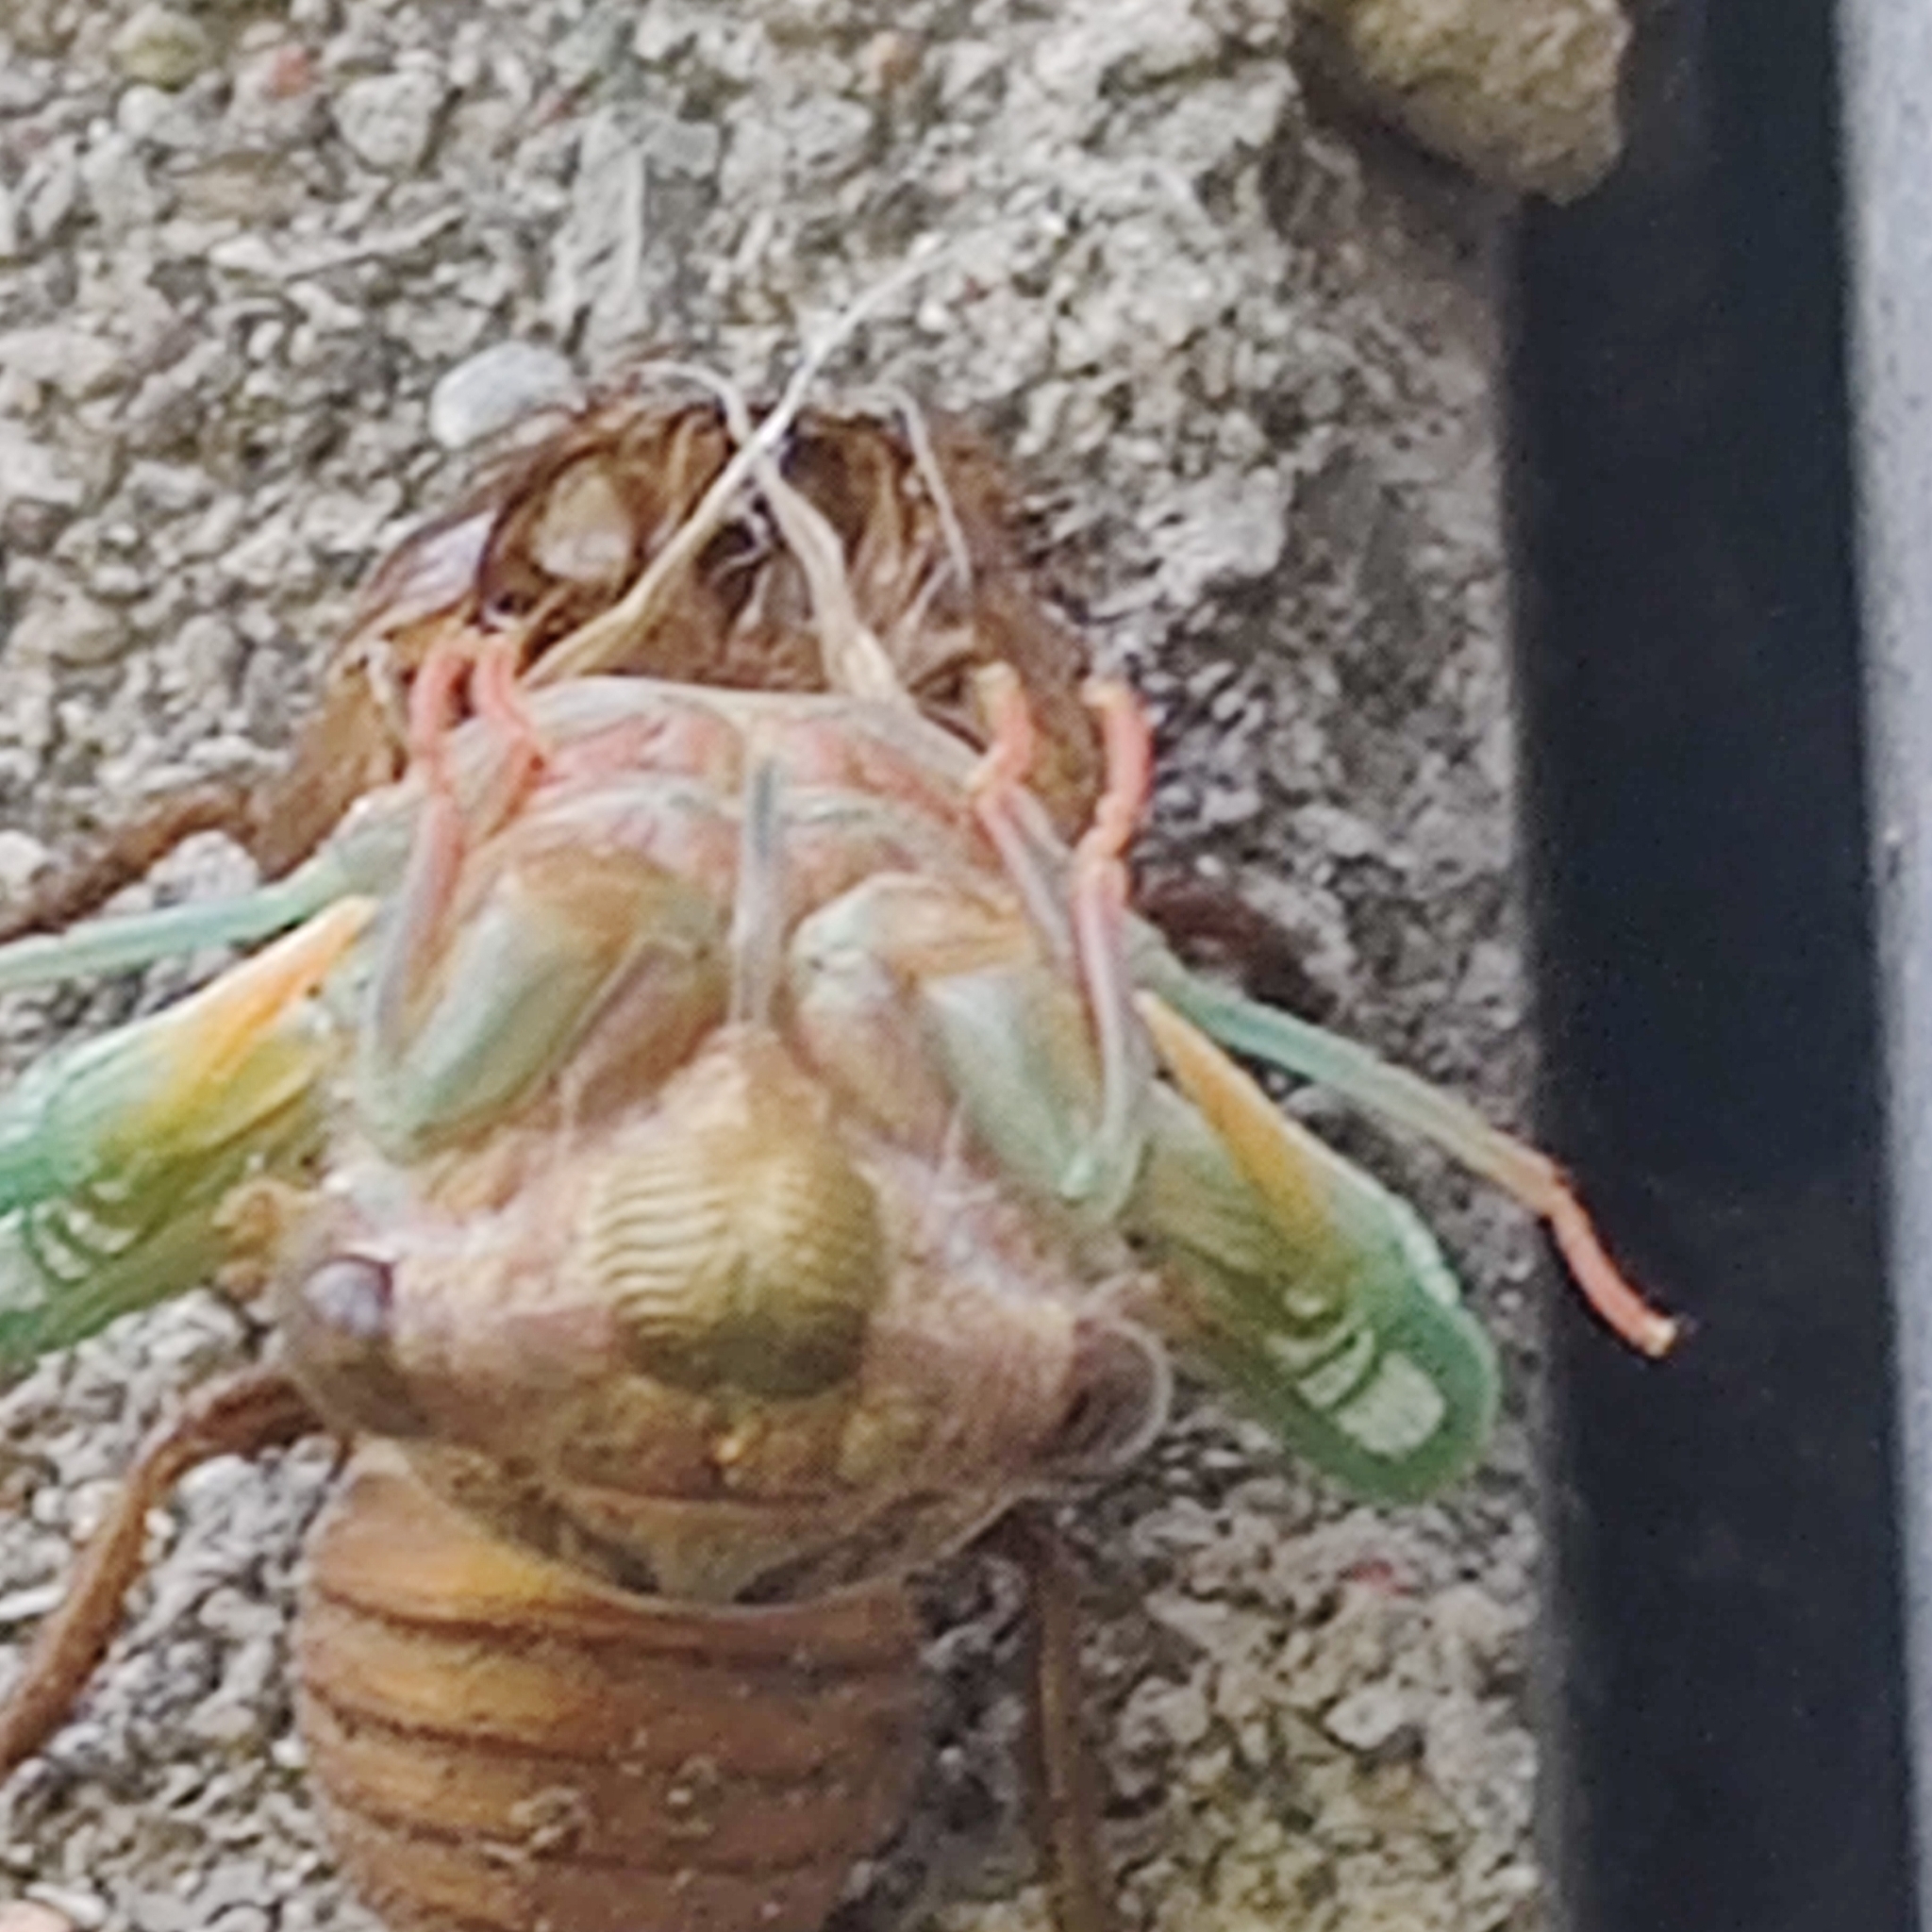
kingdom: Animalia
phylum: Arthropoda
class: Insecta
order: Hemiptera
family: Cicadidae
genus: Neotibicen
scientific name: Neotibicen canicularis
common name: God-day cicada
